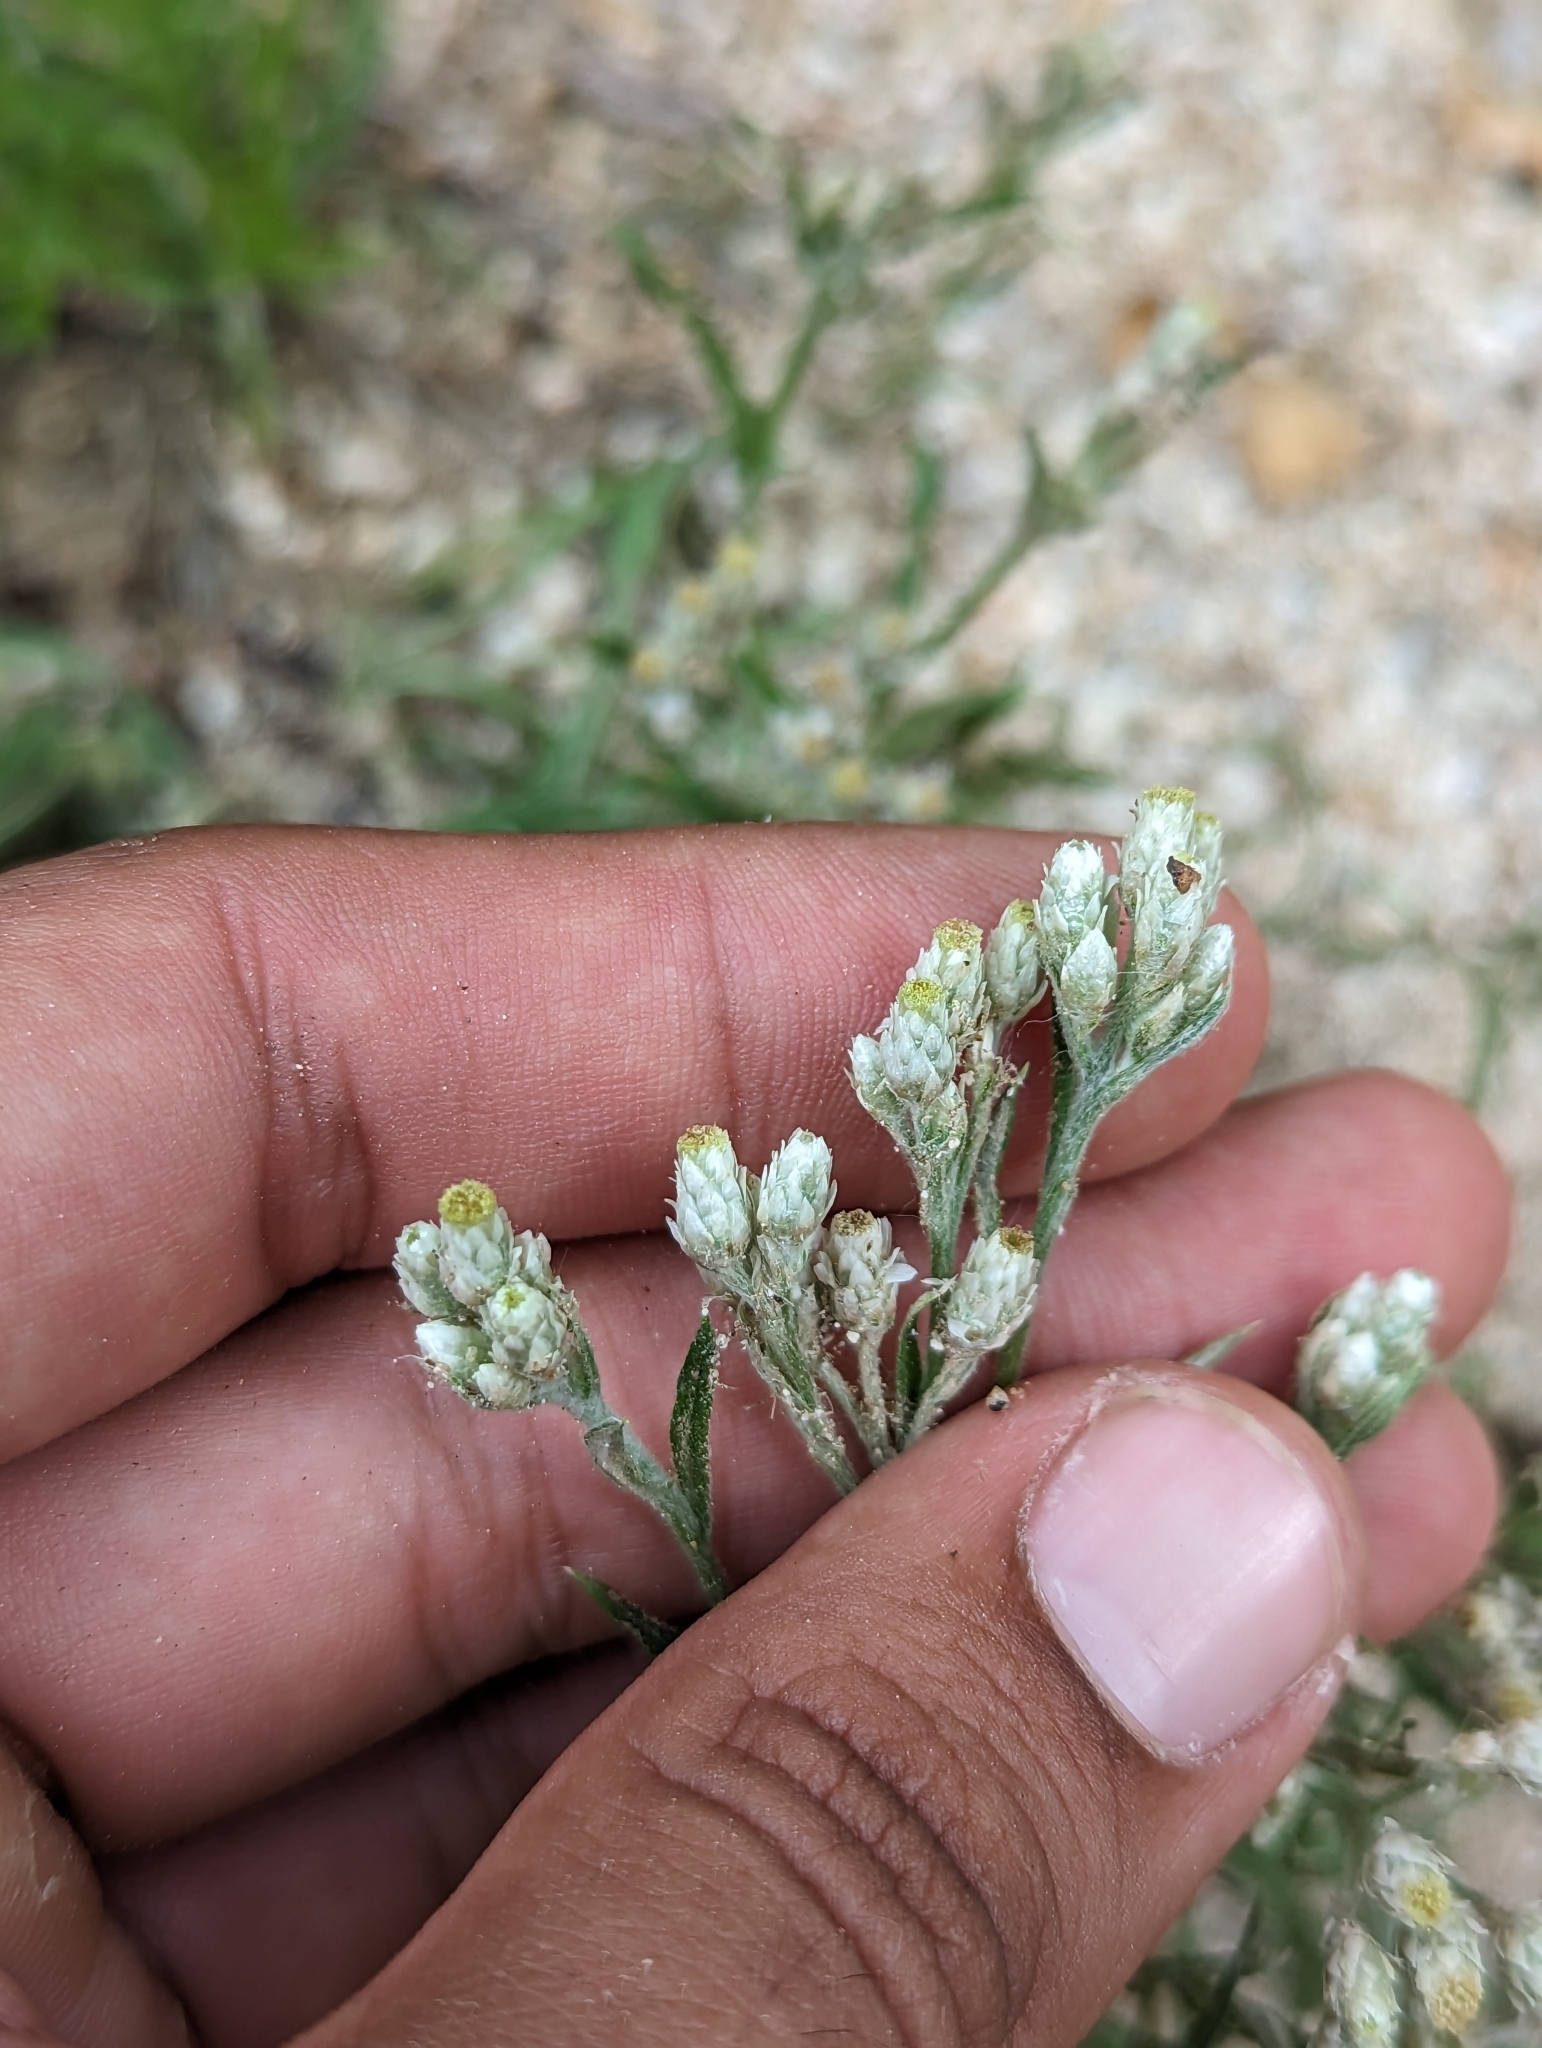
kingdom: Plantae
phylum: Tracheophyta
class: Magnoliopsida
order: Asterales
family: Asteraceae
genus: Pseudognaphalium
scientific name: Pseudognaphalium leucocephalum
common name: White cudweed
